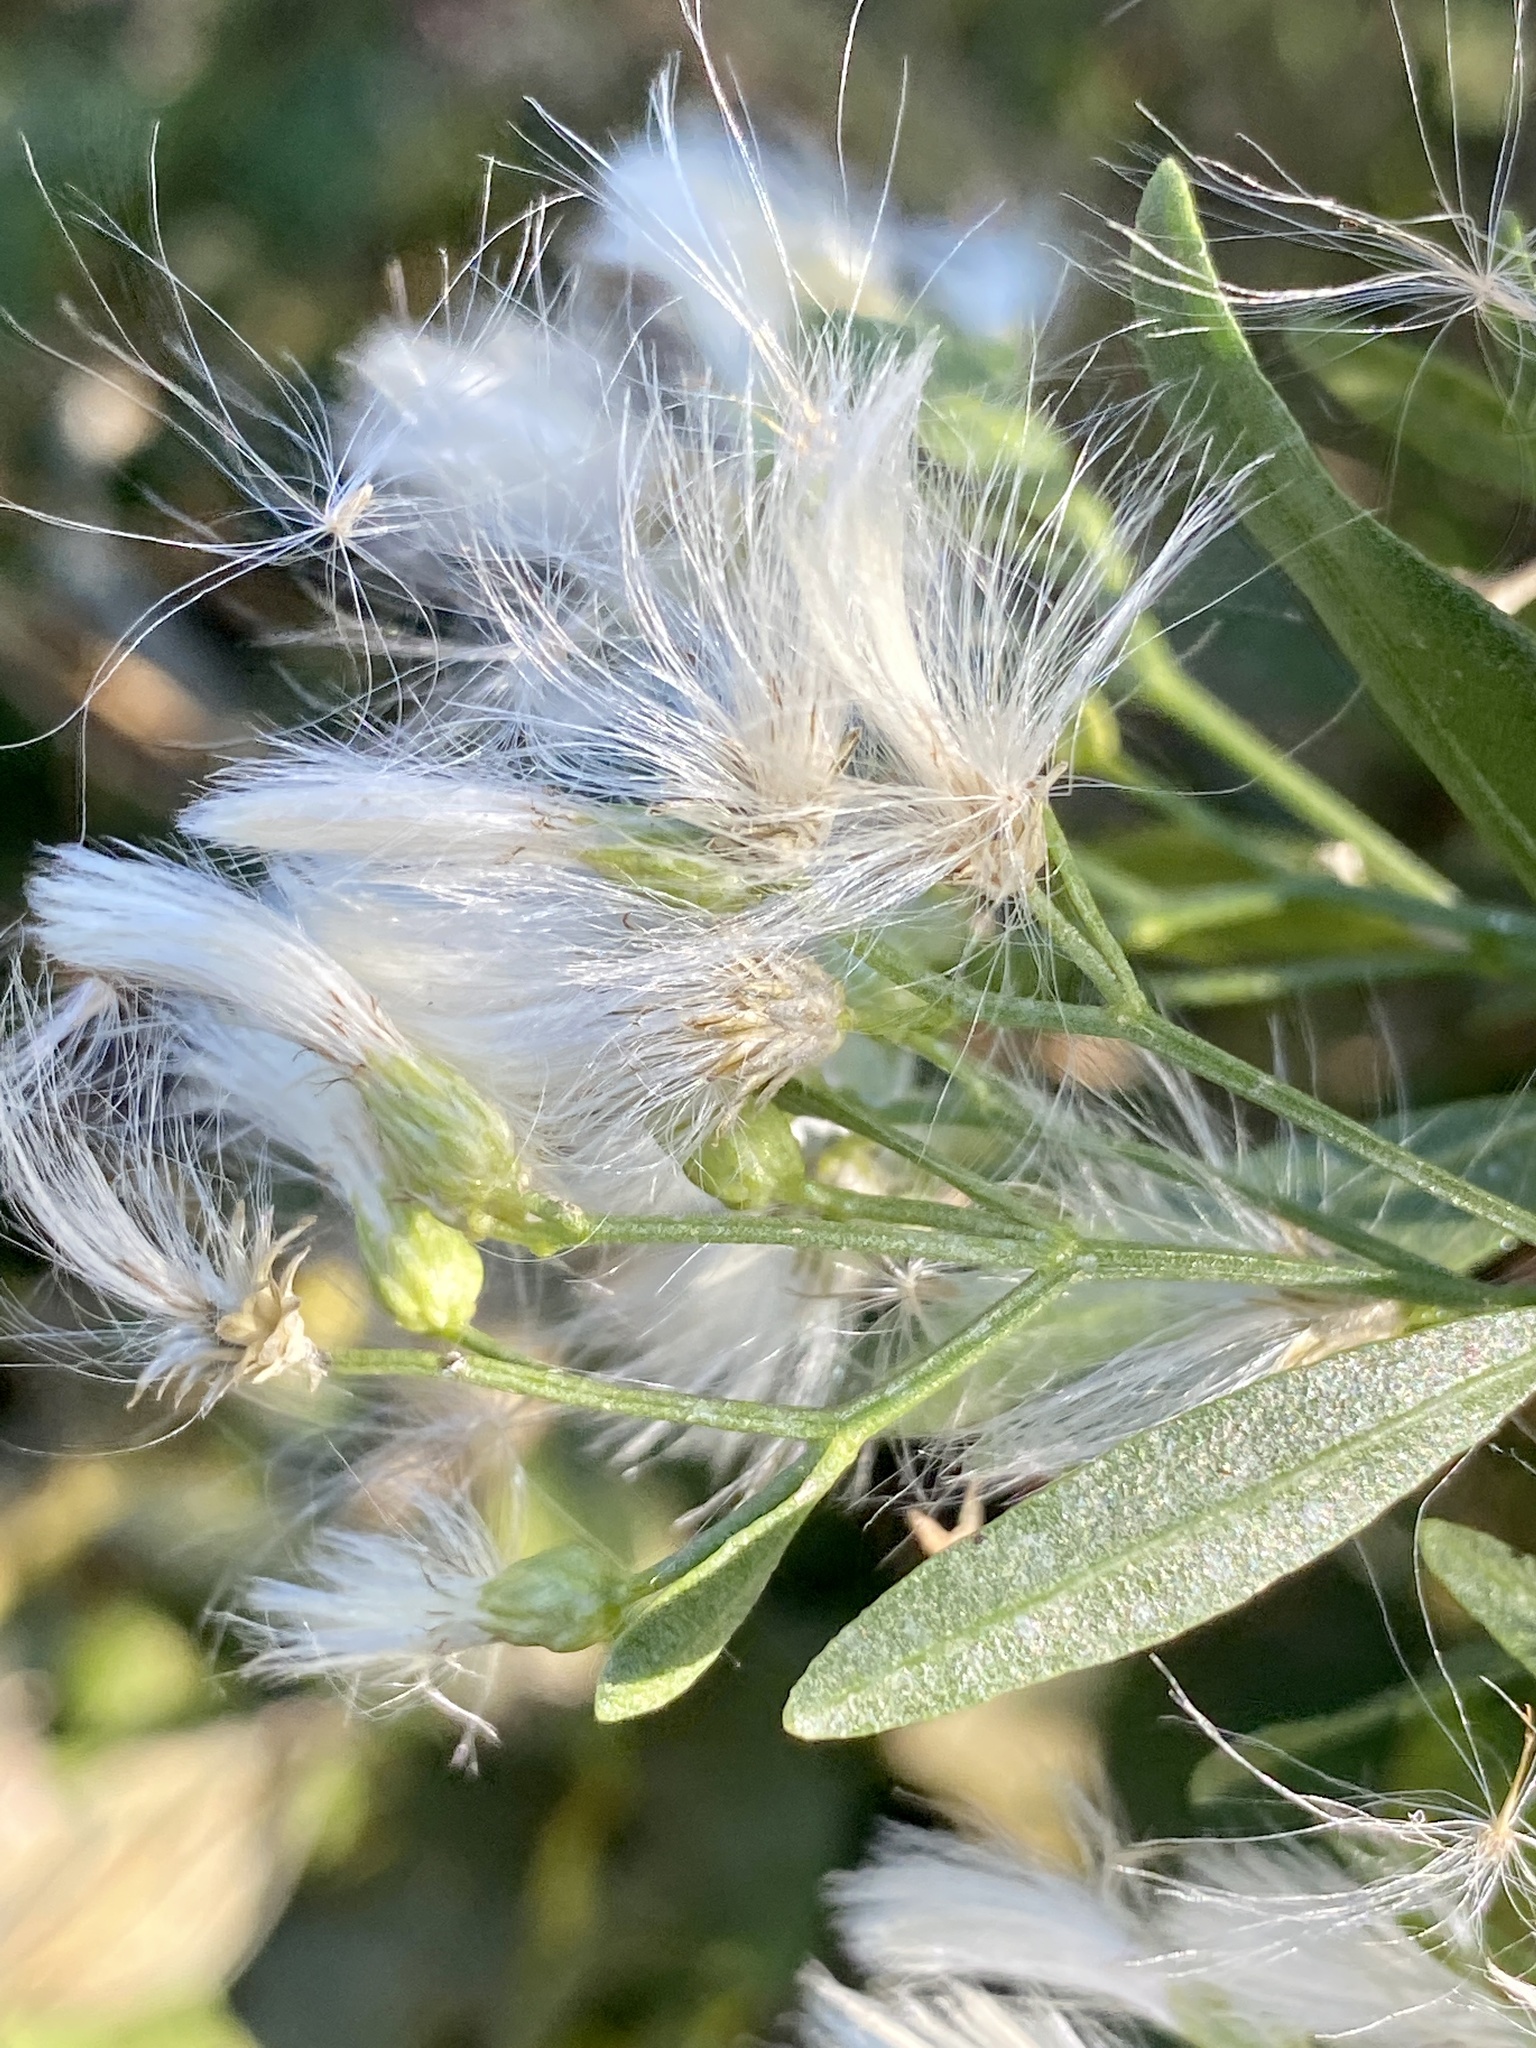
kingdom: Plantae
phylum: Tracheophyta
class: Magnoliopsida
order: Asterales
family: Asteraceae
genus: Baccharis
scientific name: Baccharis halimifolia
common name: Eastern baccharis
